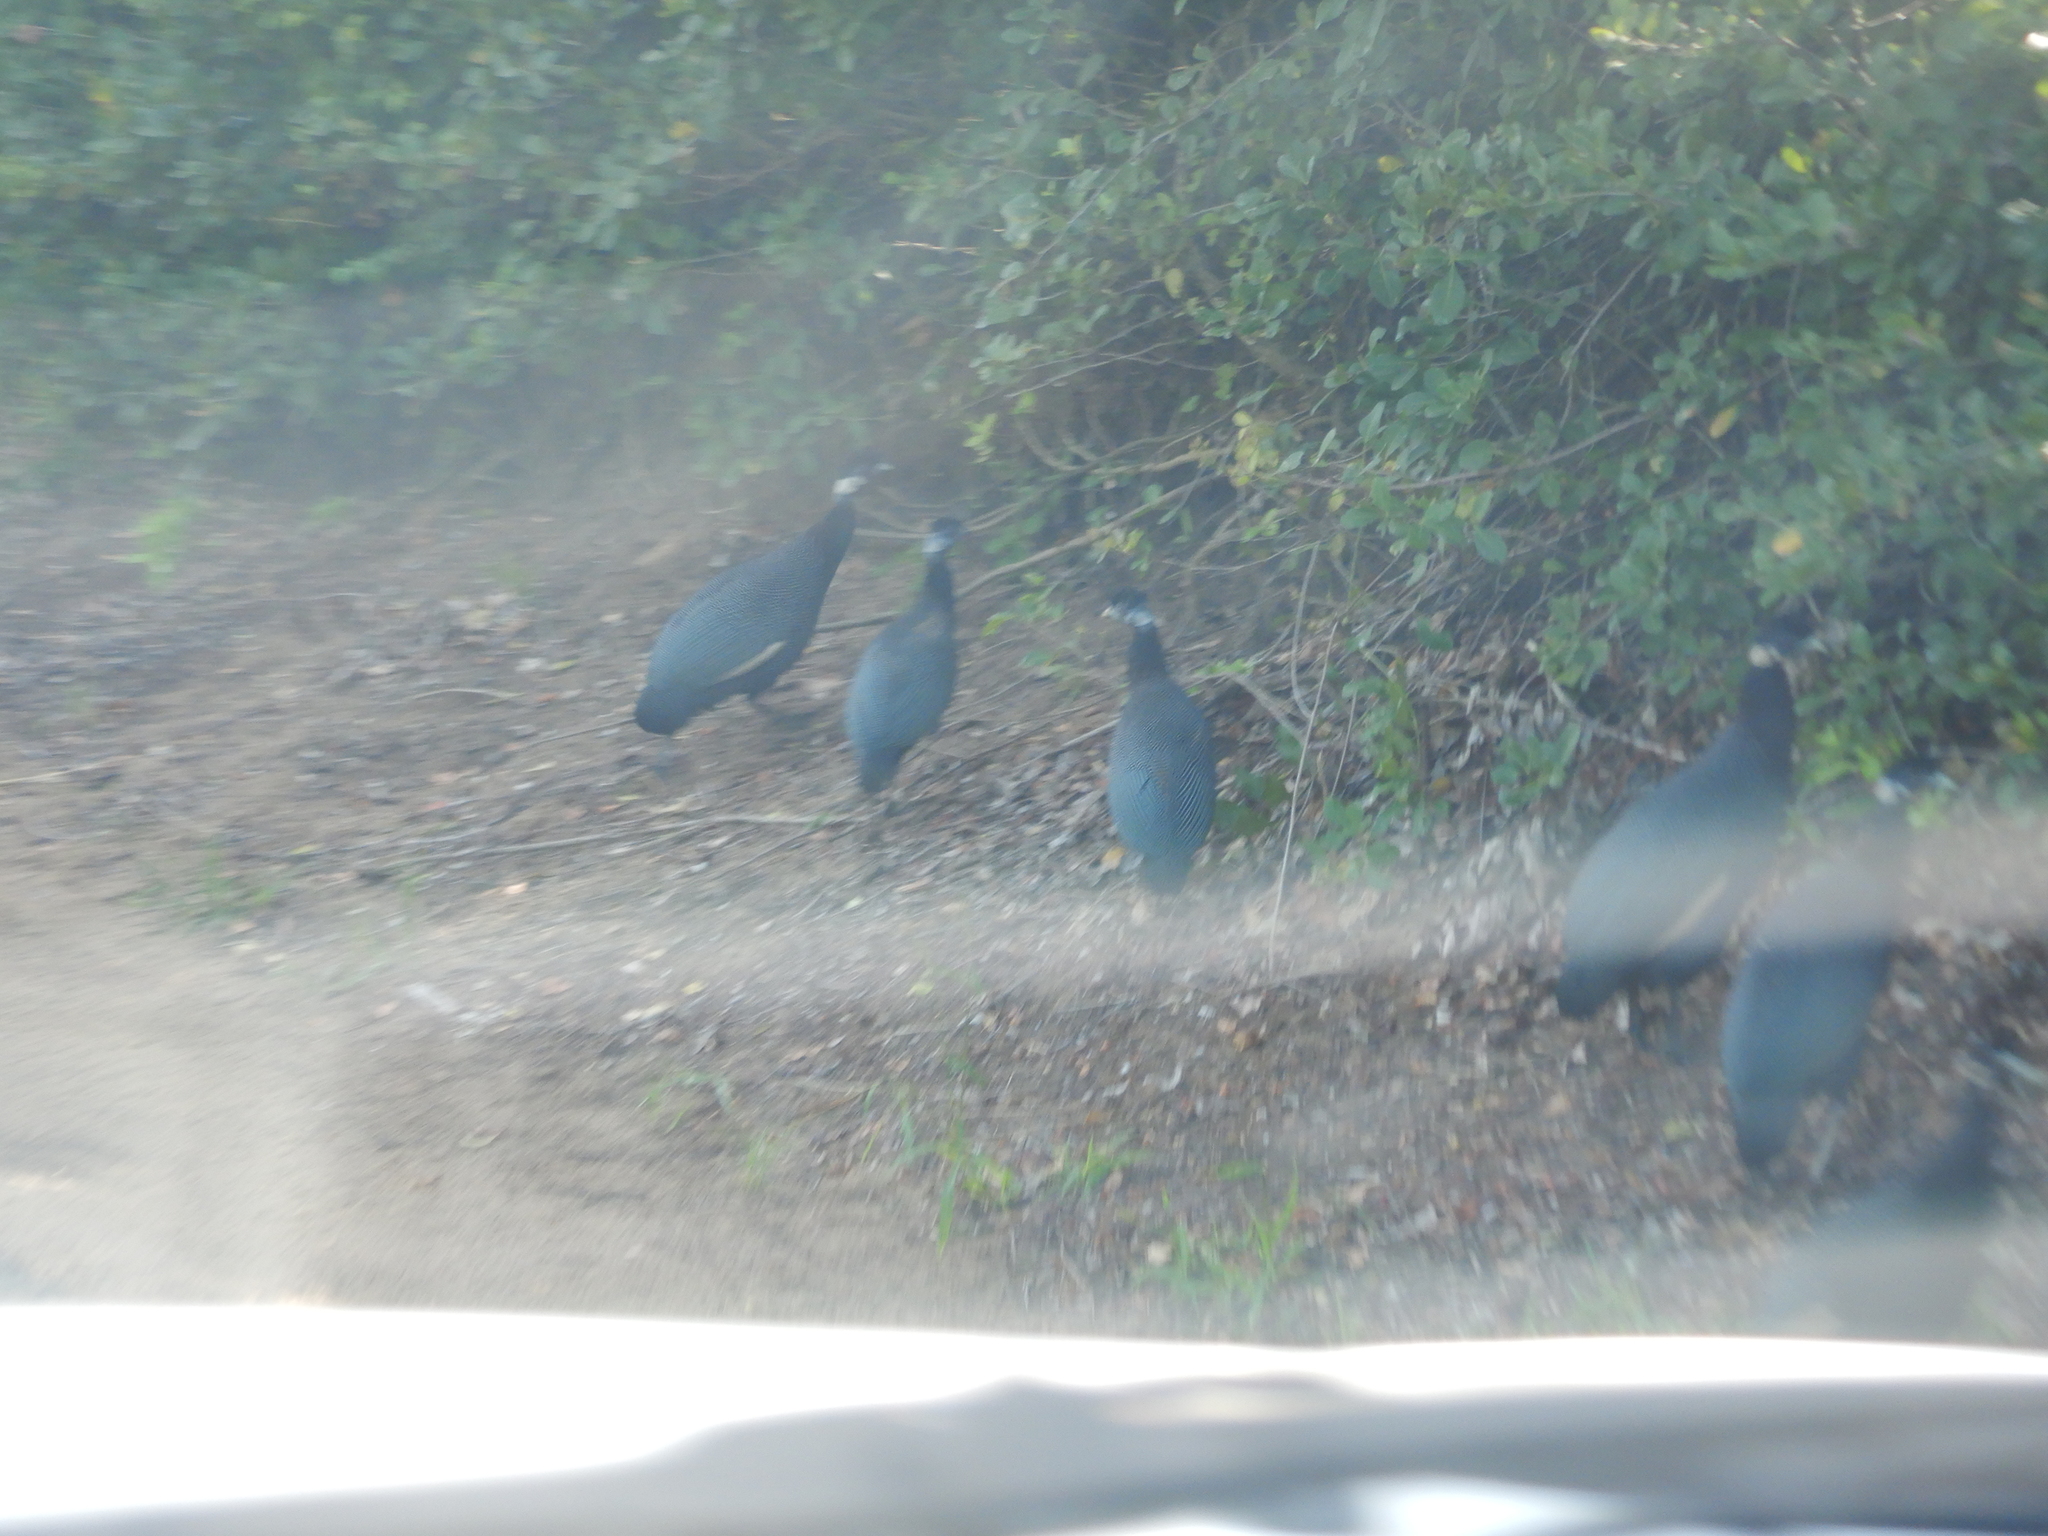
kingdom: Animalia
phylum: Chordata
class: Aves
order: Galliformes
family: Numididae
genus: Guttera
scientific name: Guttera pucherani
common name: Crested guineafowl
